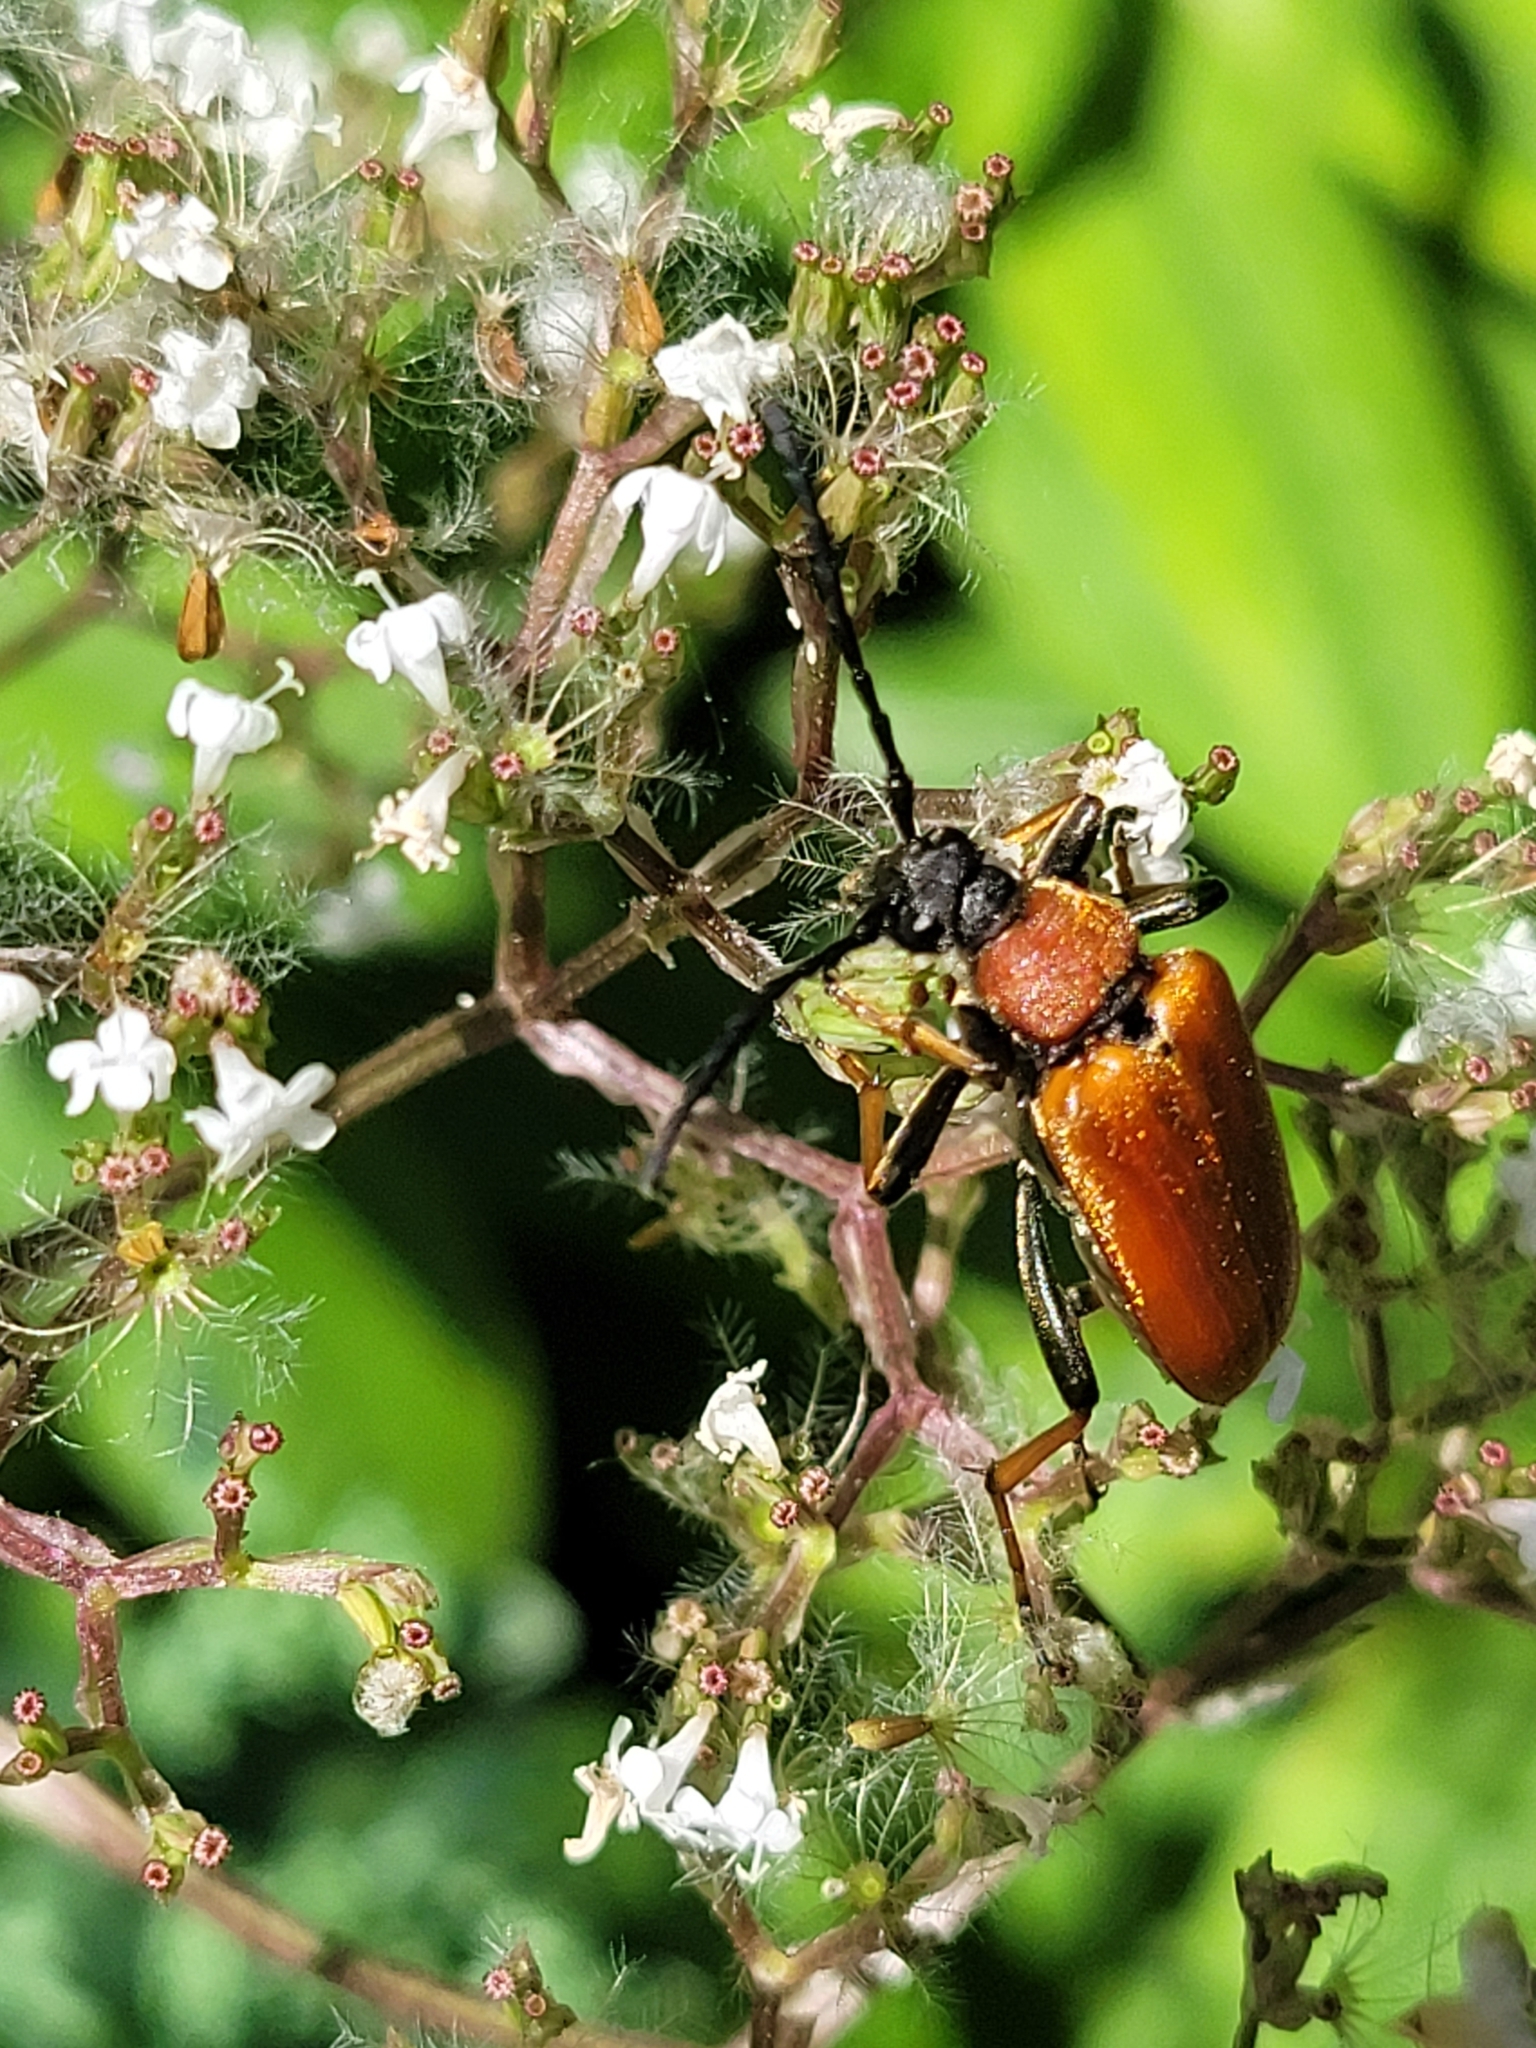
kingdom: Animalia
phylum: Arthropoda
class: Insecta
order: Coleoptera
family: Cerambycidae
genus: Stictoleptura
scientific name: Stictoleptura rubra
